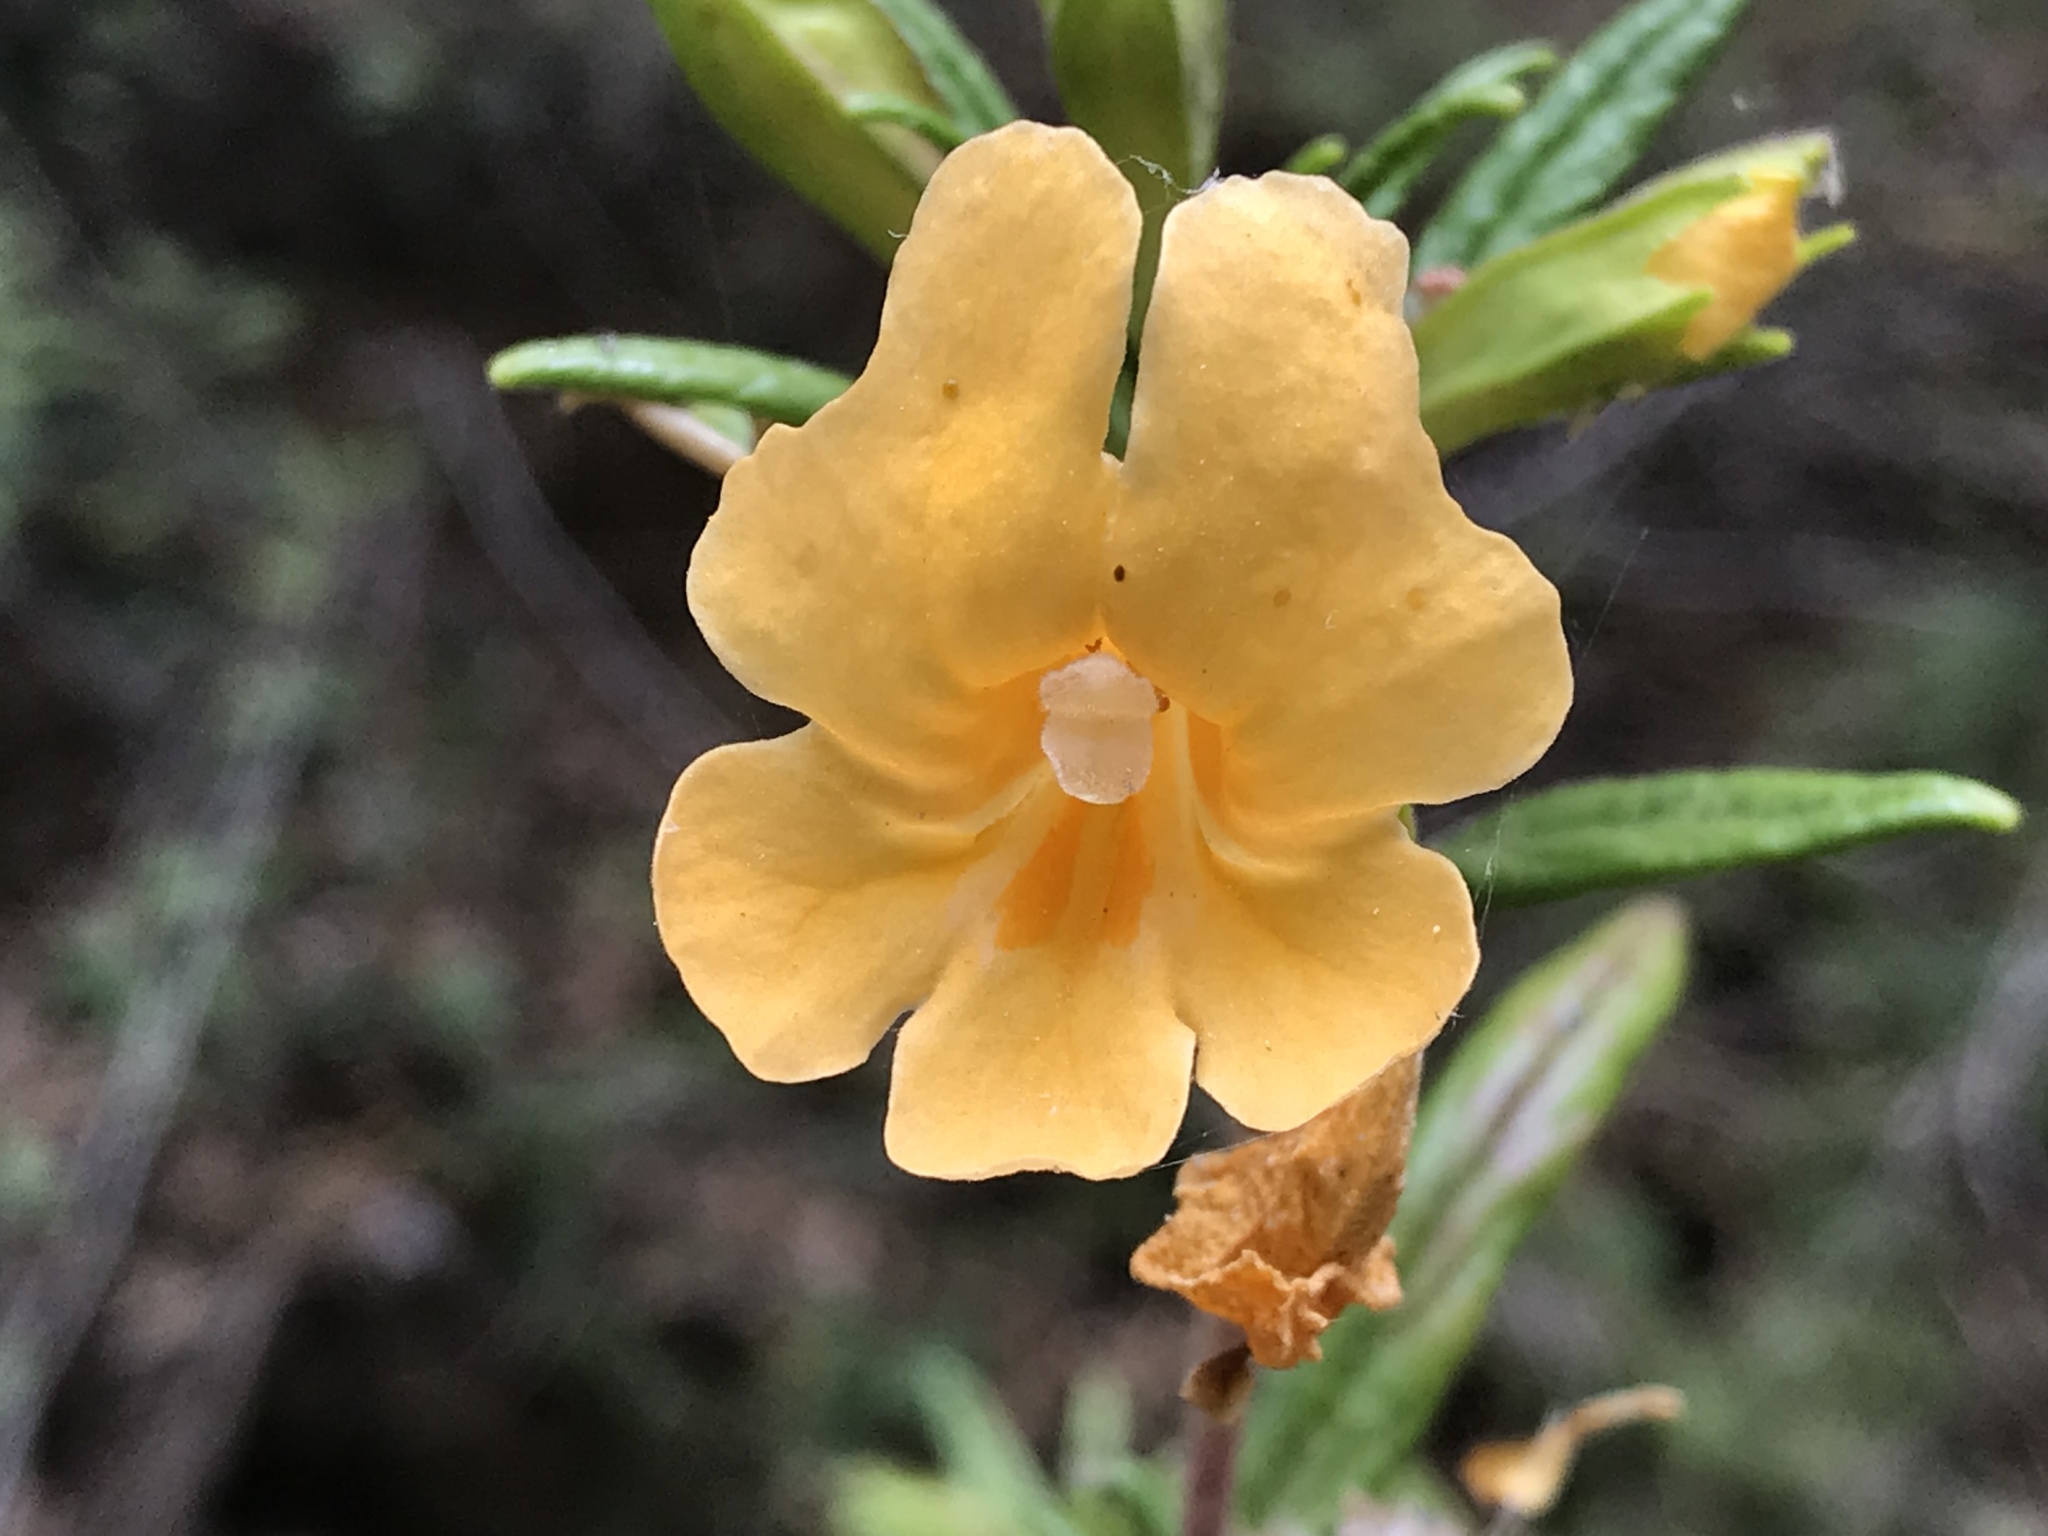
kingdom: Plantae
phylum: Tracheophyta
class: Magnoliopsida
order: Lamiales
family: Phrymaceae
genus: Diplacus
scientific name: Diplacus aurantiacus
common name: Bush monkey-flower
